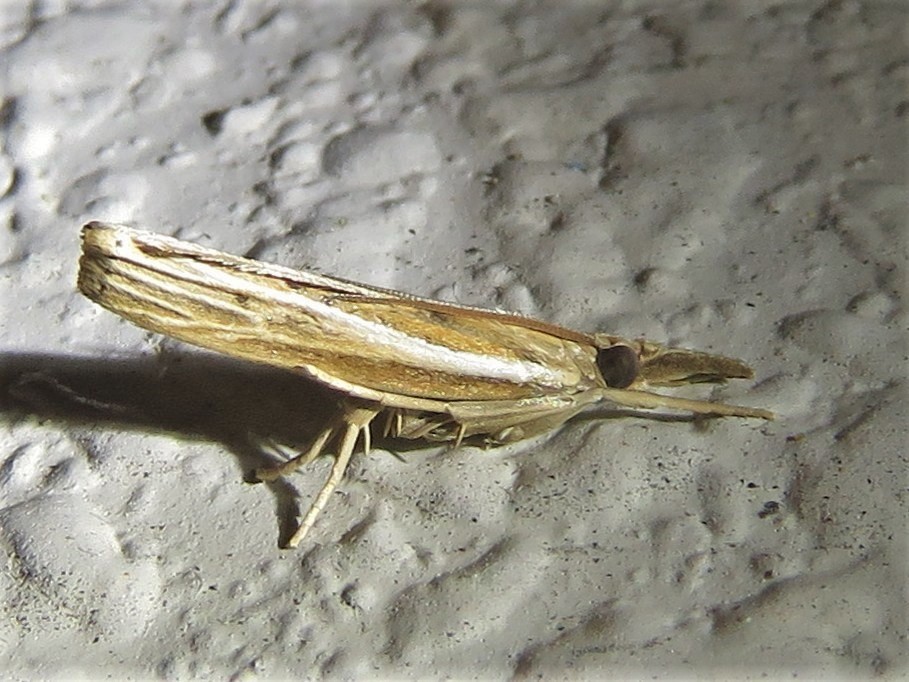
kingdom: Animalia
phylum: Arthropoda
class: Insecta
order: Lepidoptera
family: Crambidae
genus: Fissicrambus
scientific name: Fissicrambus fissiradiellus
